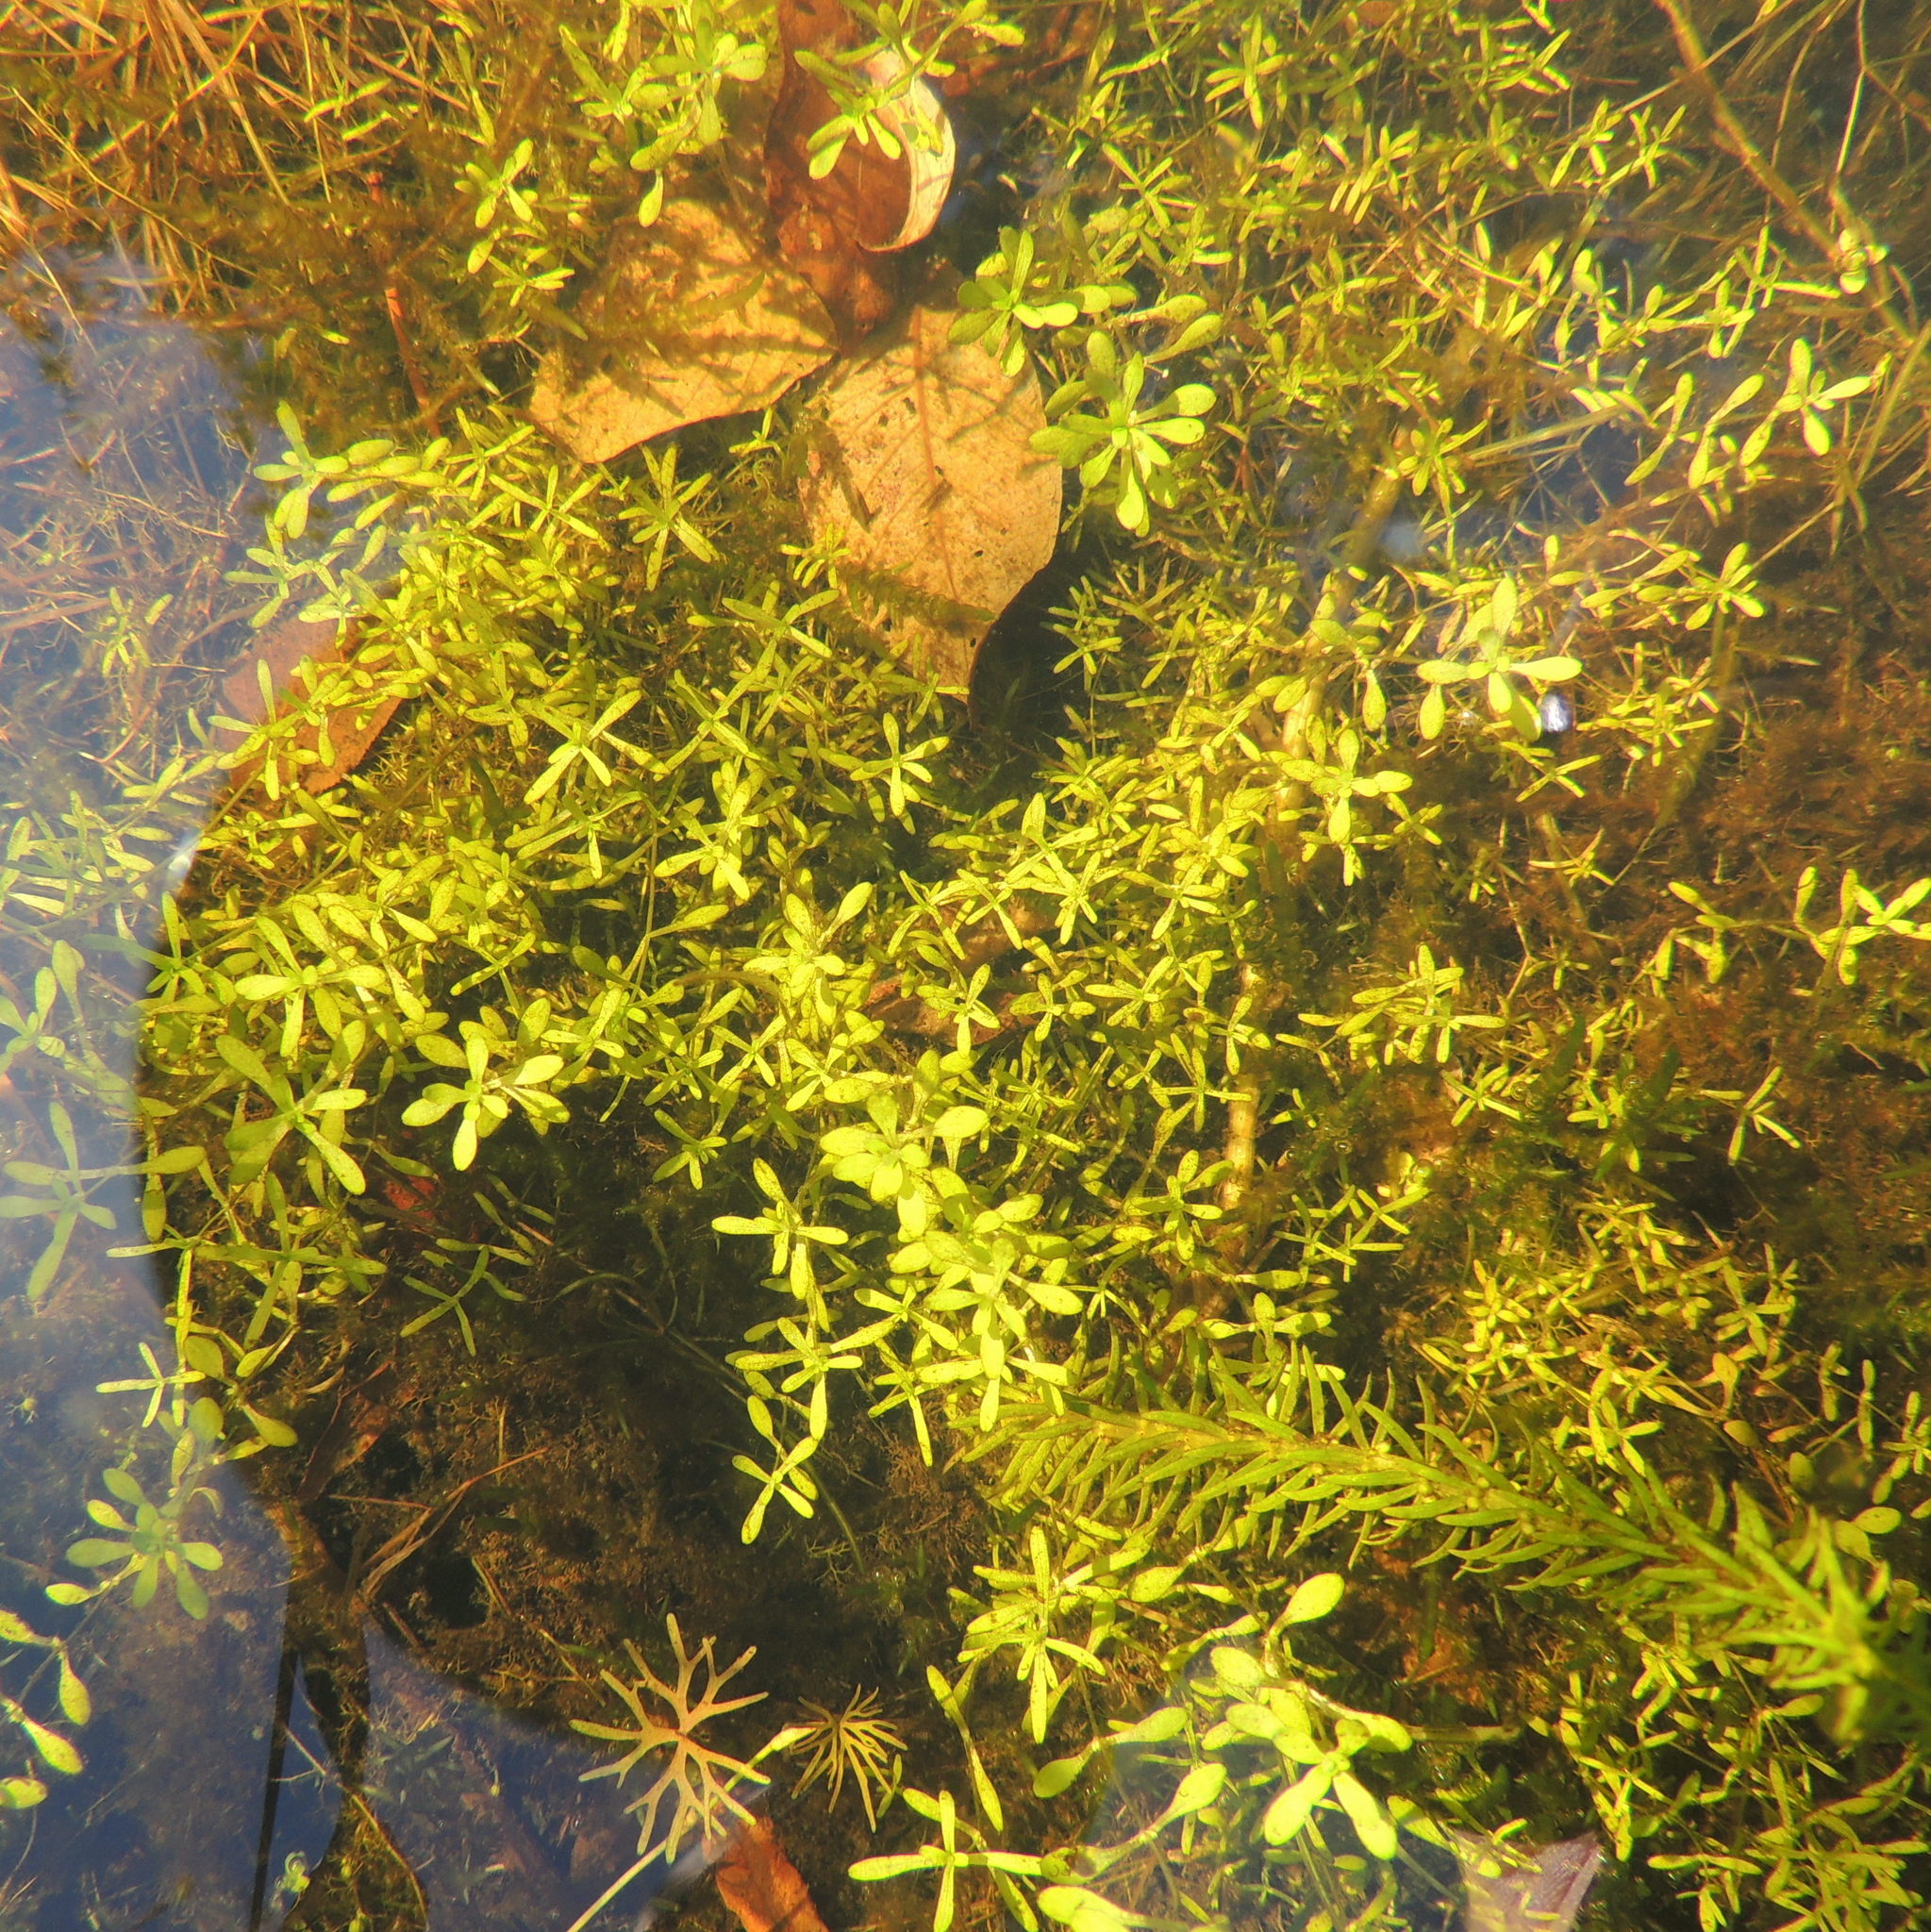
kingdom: Plantae
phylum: Tracheophyta
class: Magnoliopsida
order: Lamiales
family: Plantaginaceae
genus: Callitriche
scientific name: Callitriche
